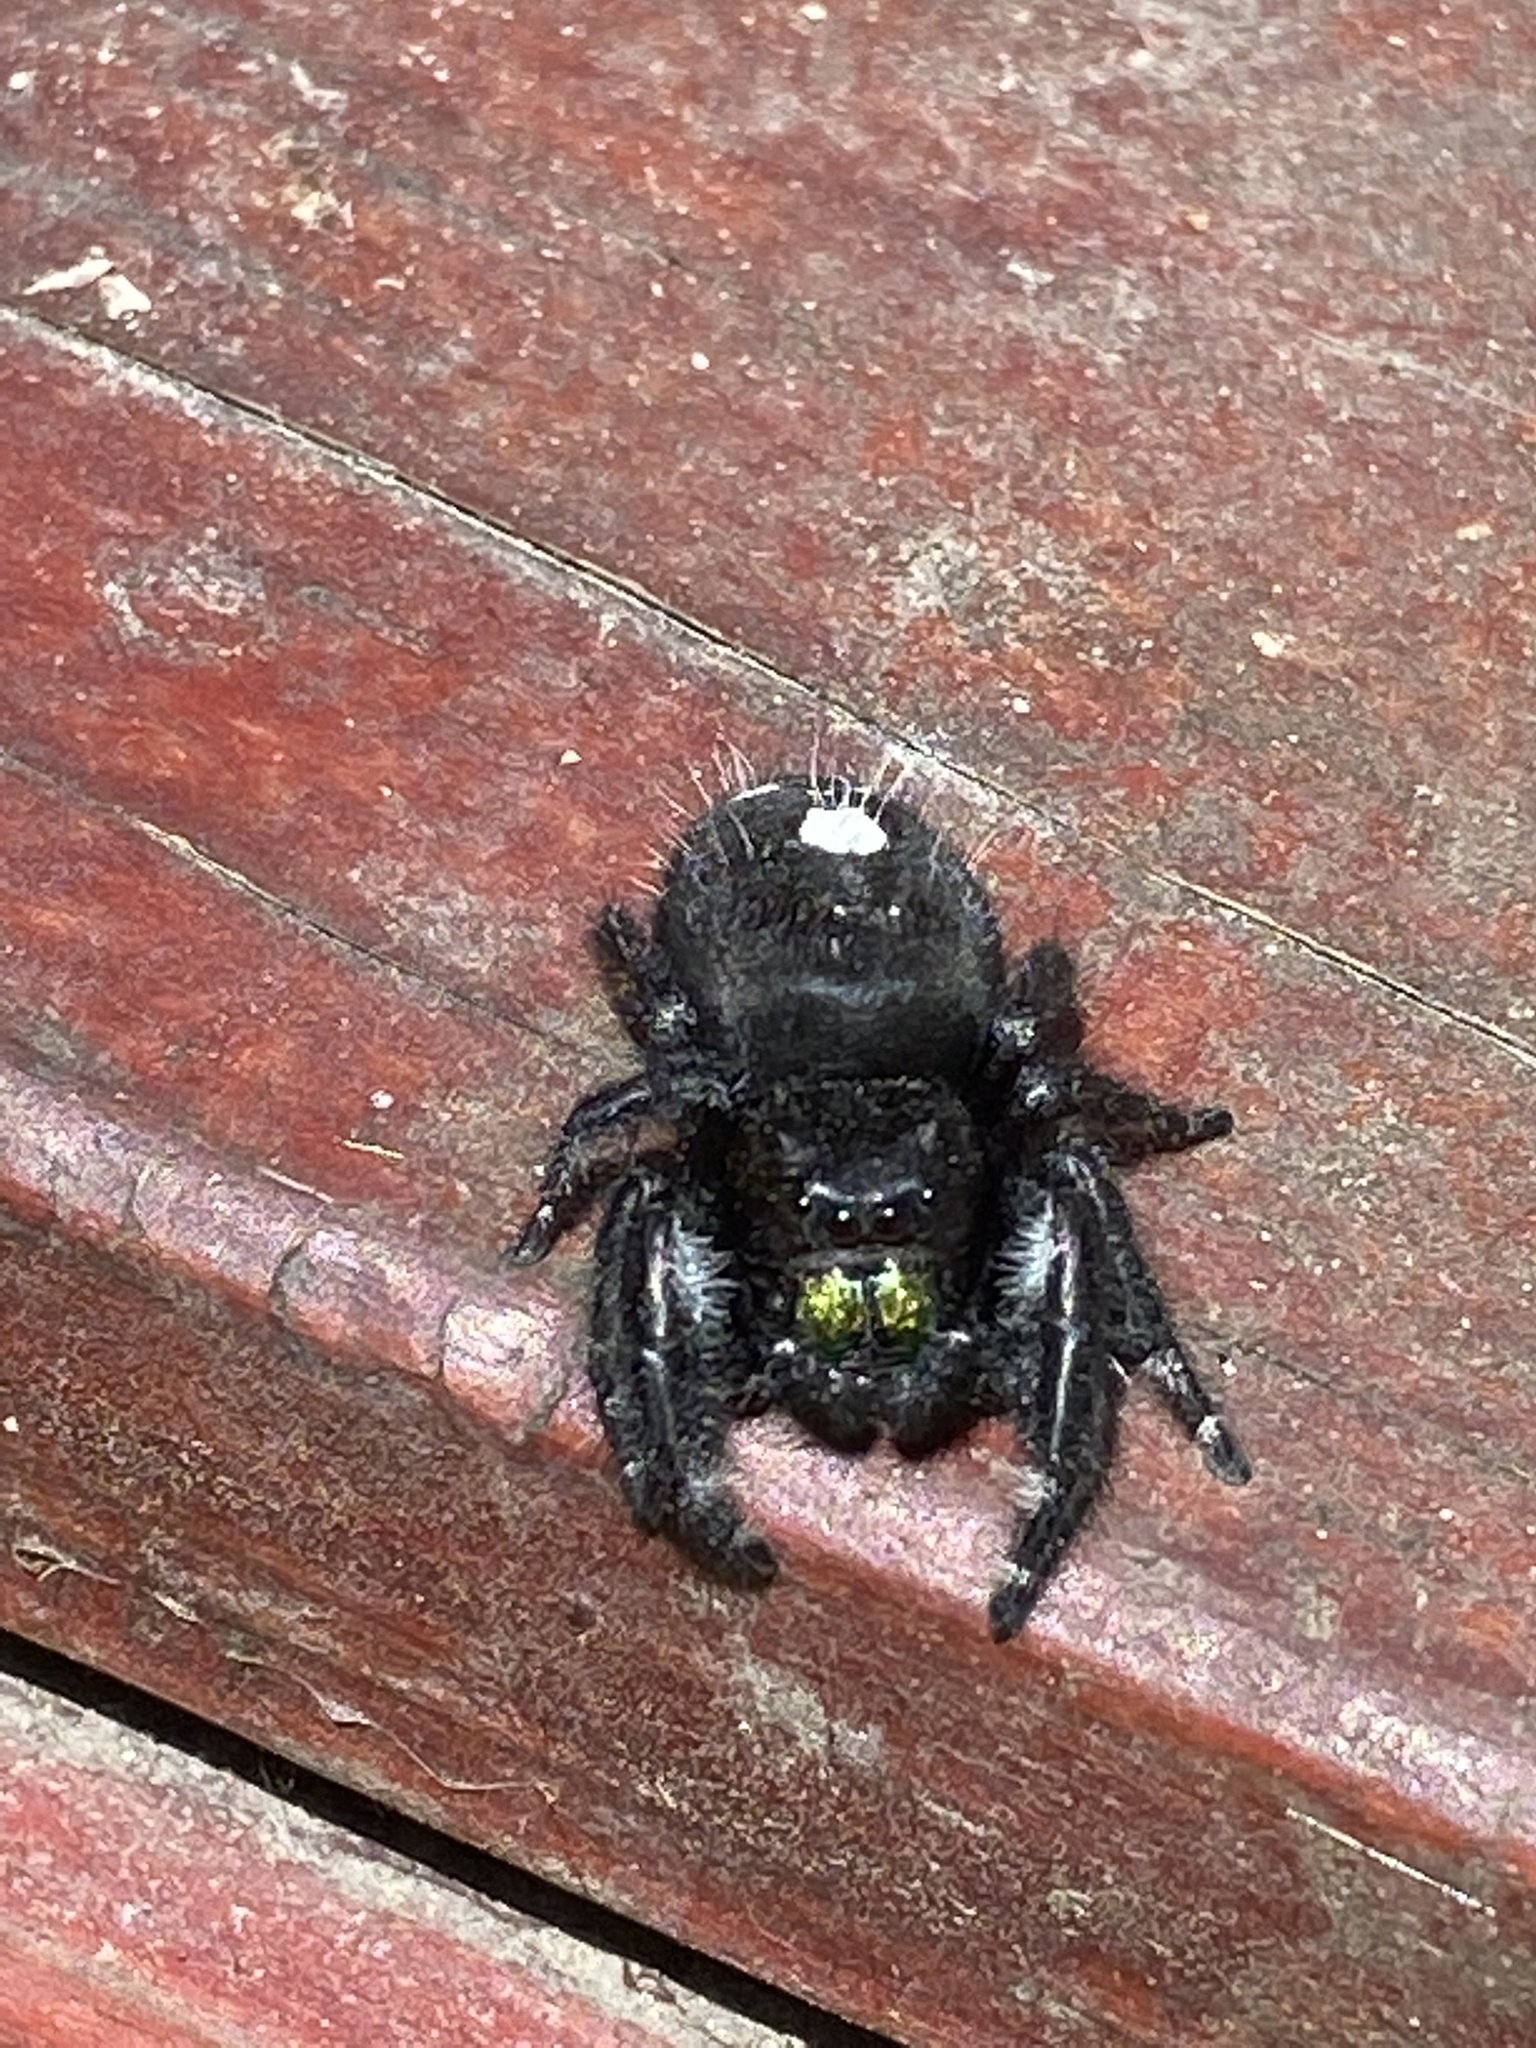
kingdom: Animalia
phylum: Arthropoda
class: Arachnida
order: Araneae
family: Salticidae
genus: Phidippus
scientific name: Phidippus audax
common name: Bold jumper
